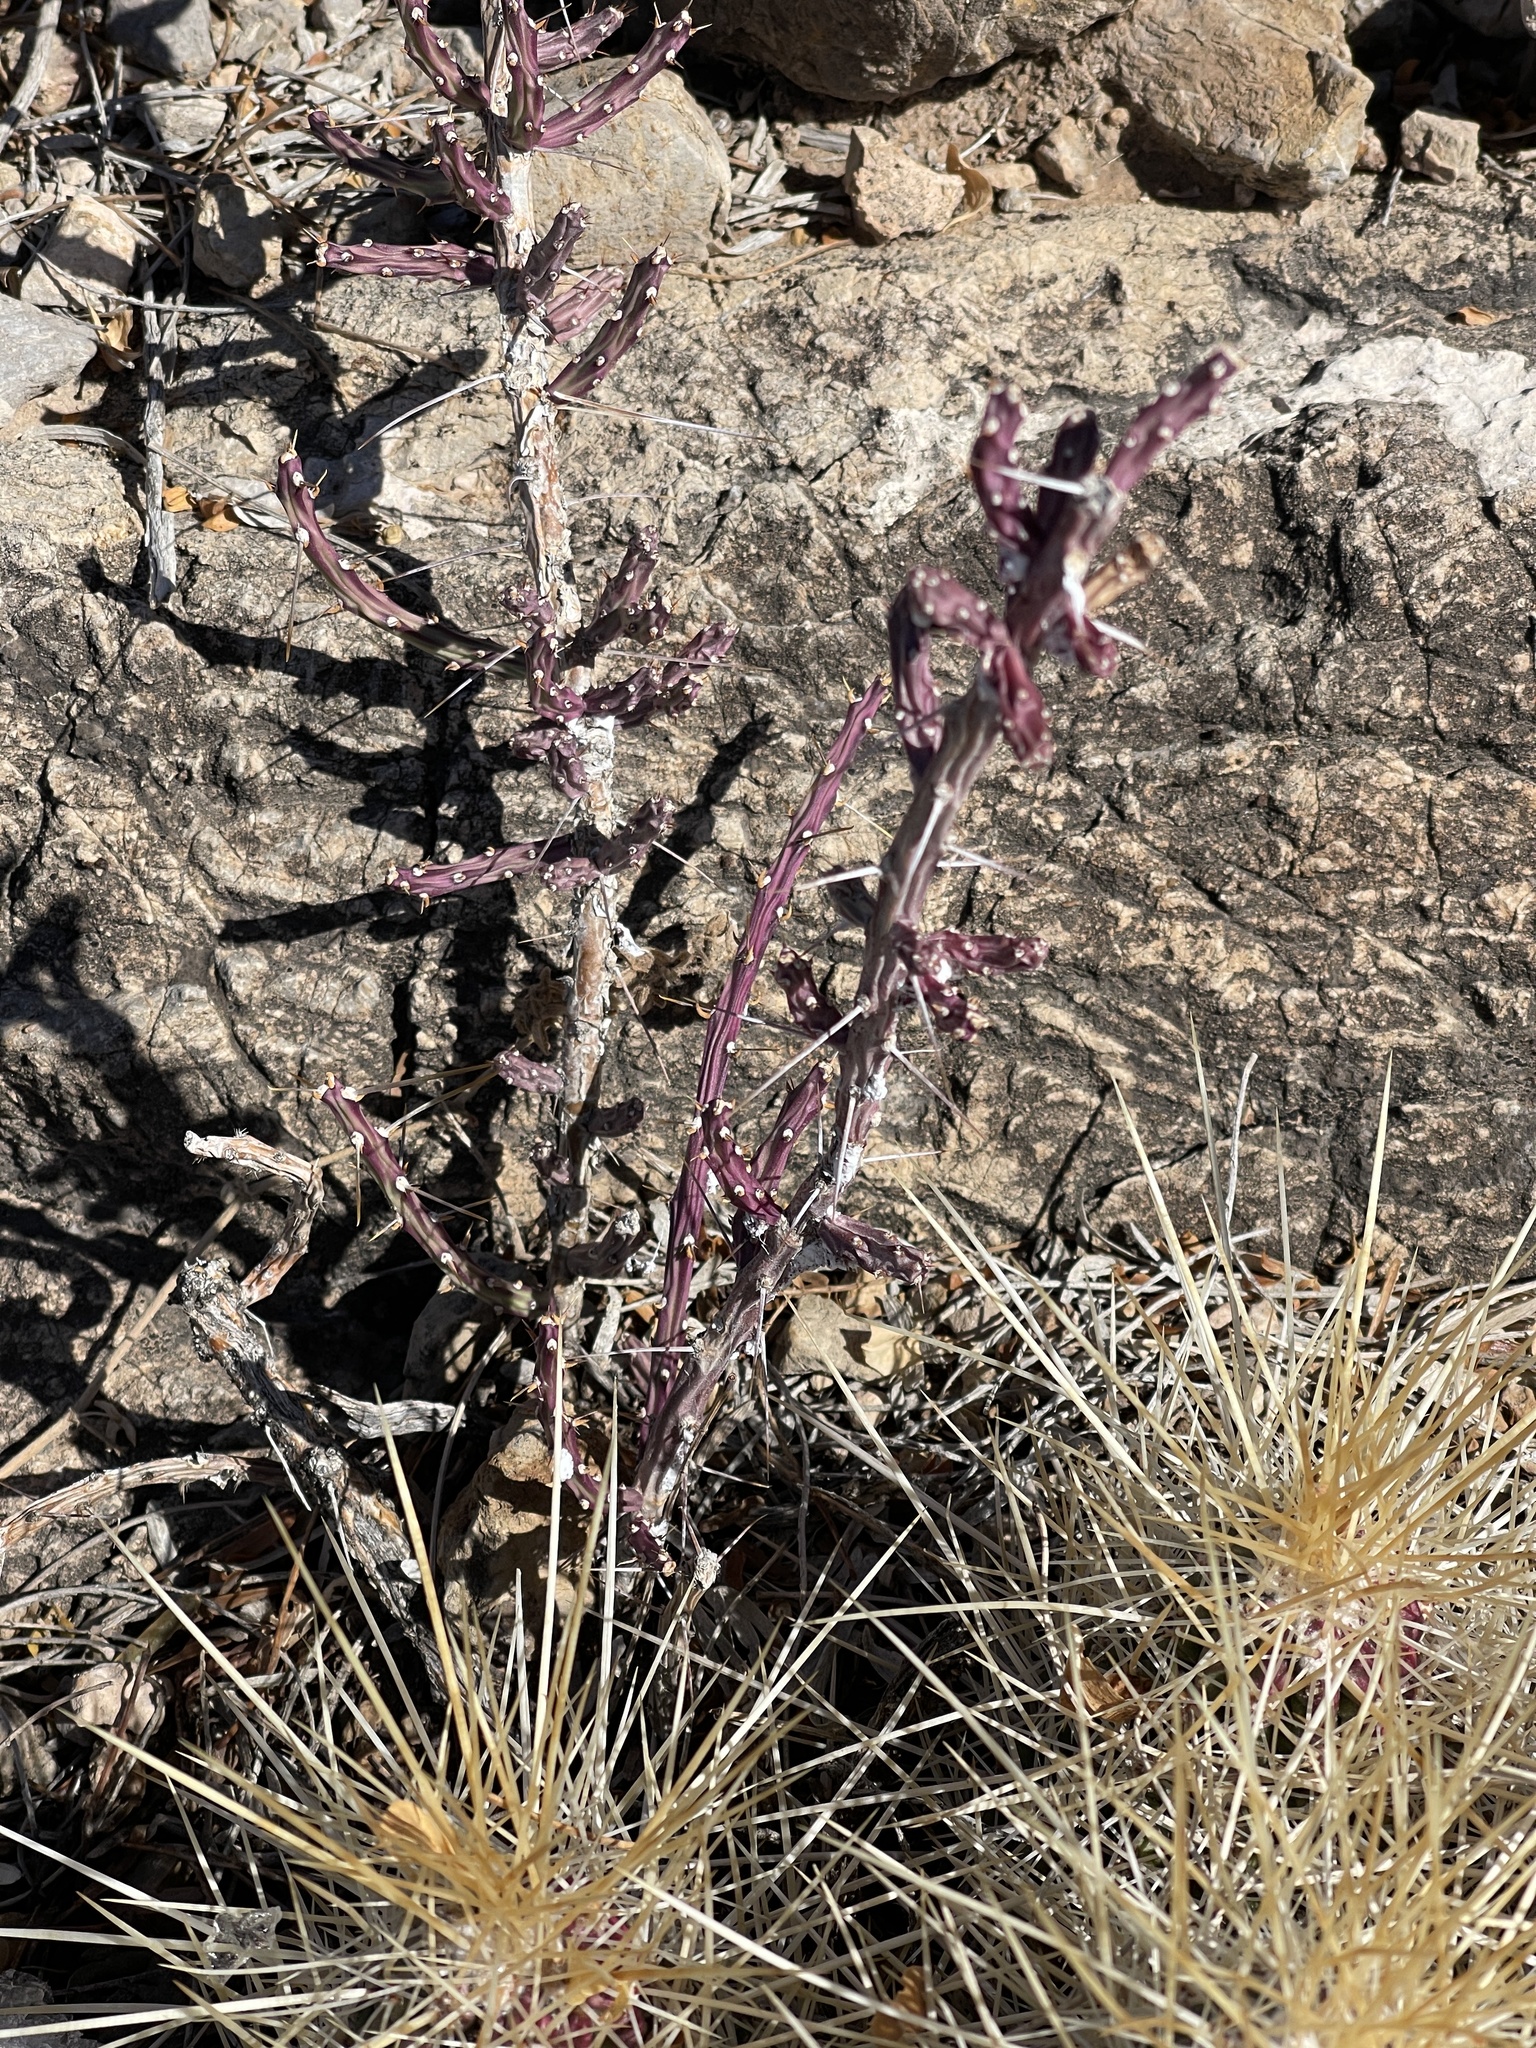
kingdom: Plantae
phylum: Tracheophyta
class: Magnoliopsida
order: Caryophyllales
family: Cactaceae
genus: Cylindropuntia
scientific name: Cylindropuntia leptocaulis
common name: Christmas cactus
